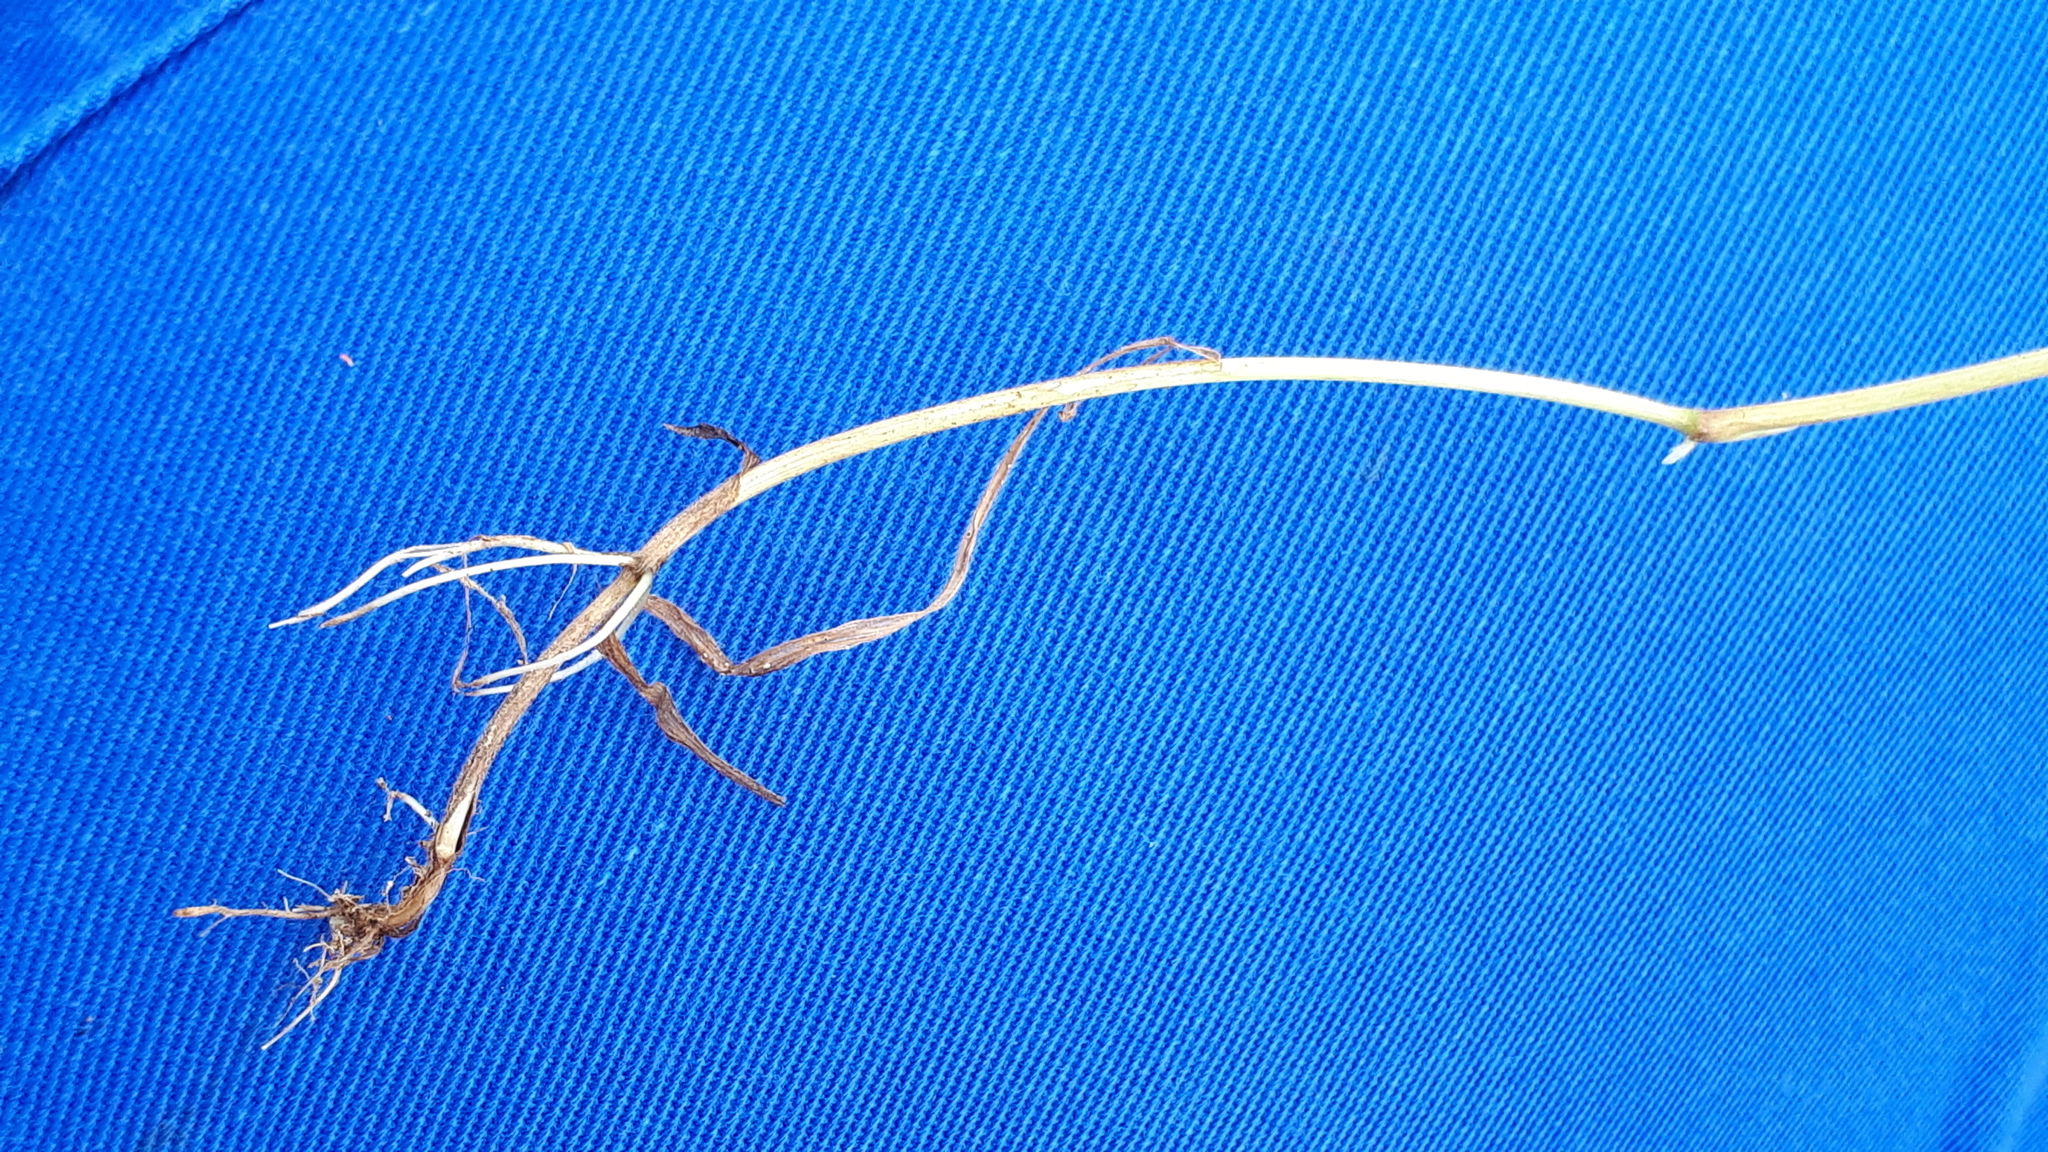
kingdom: Plantae
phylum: Tracheophyta
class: Liliopsida
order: Poales
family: Poaceae
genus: Bromus
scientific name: Bromus hordeaceus
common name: Soft brome
